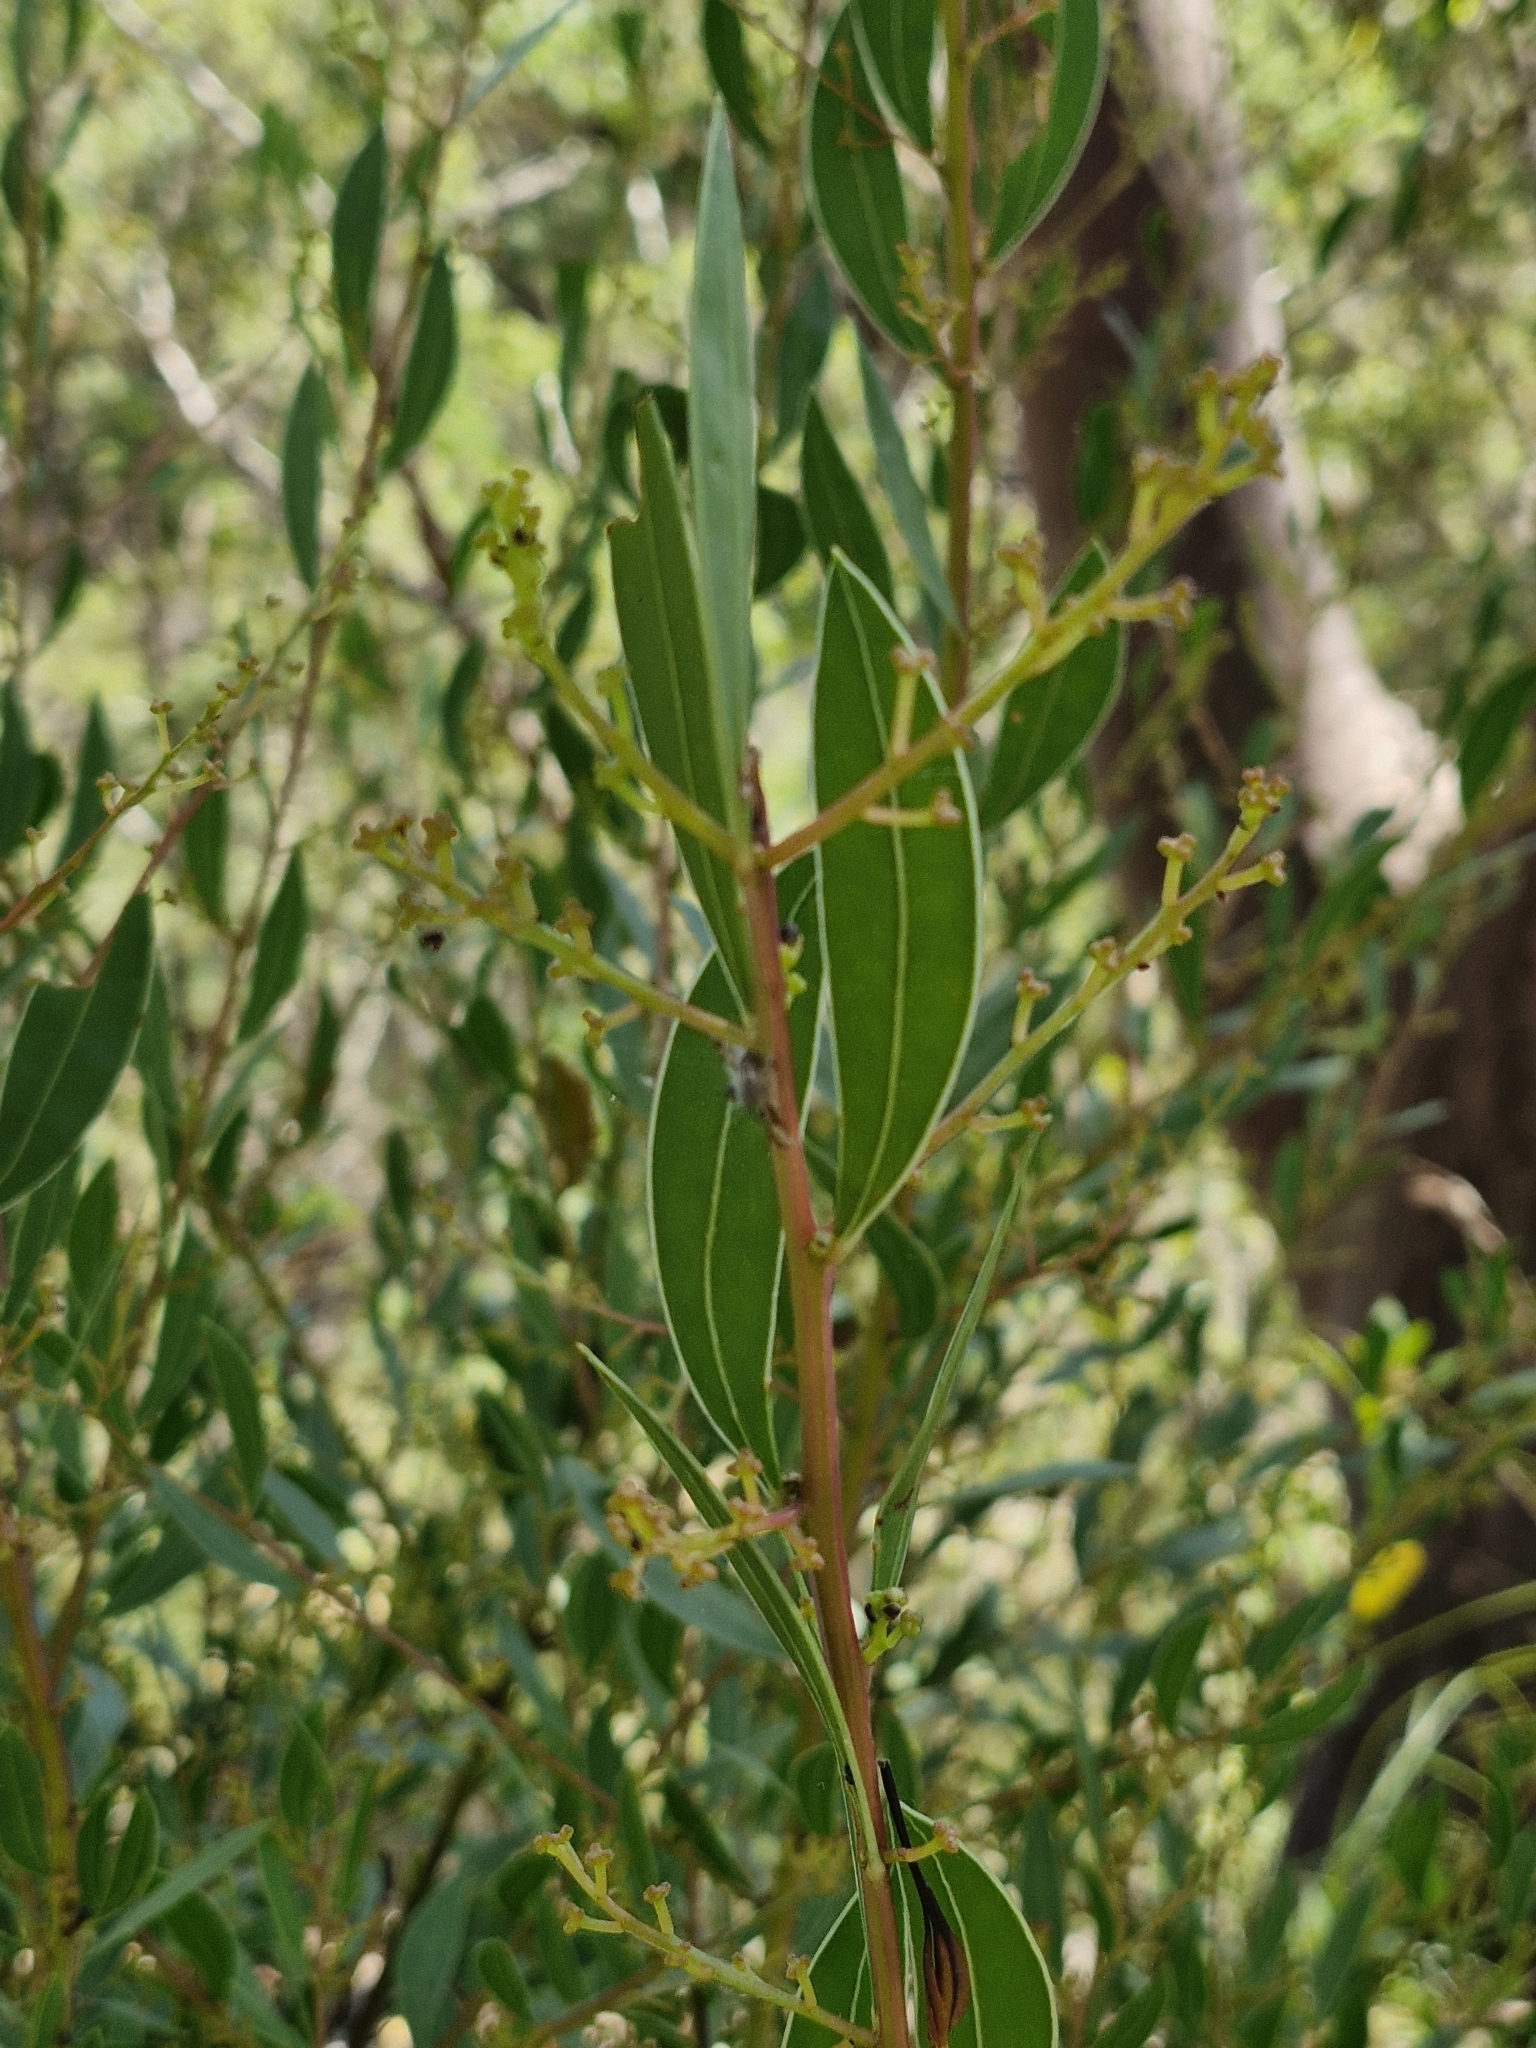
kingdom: Plantae
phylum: Tracheophyta
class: Magnoliopsida
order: Fabales
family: Fabaceae
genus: Acacia
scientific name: Acacia myrtifolia
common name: Myrtle wattle
